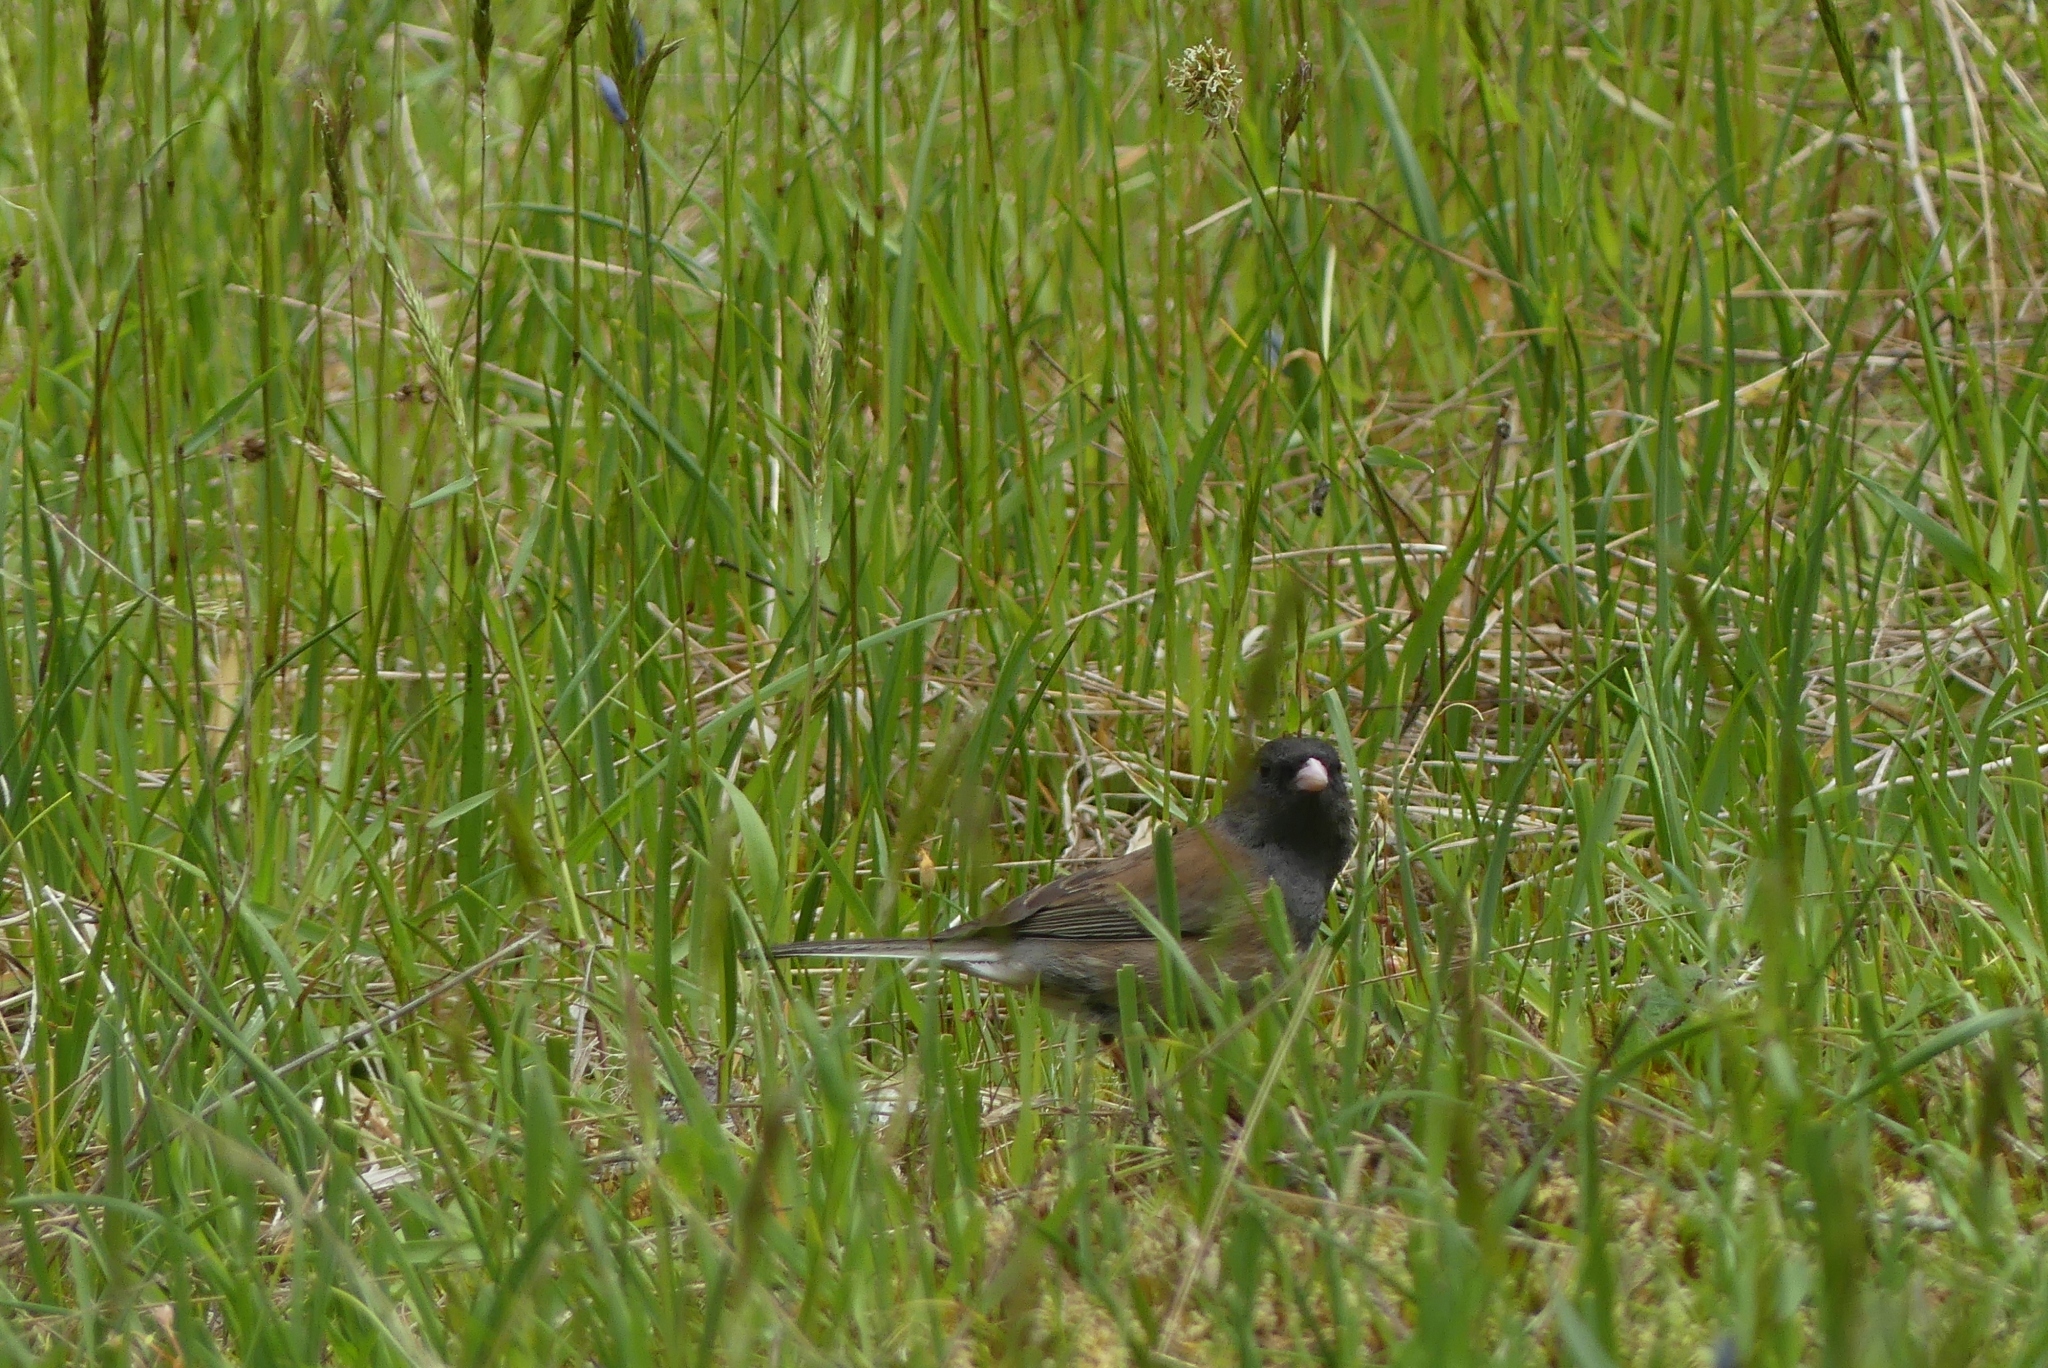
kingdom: Animalia
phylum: Chordata
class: Aves
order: Passeriformes
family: Passerellidae
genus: Junco
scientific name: Junco hyemalis
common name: Dark-eyed junco
